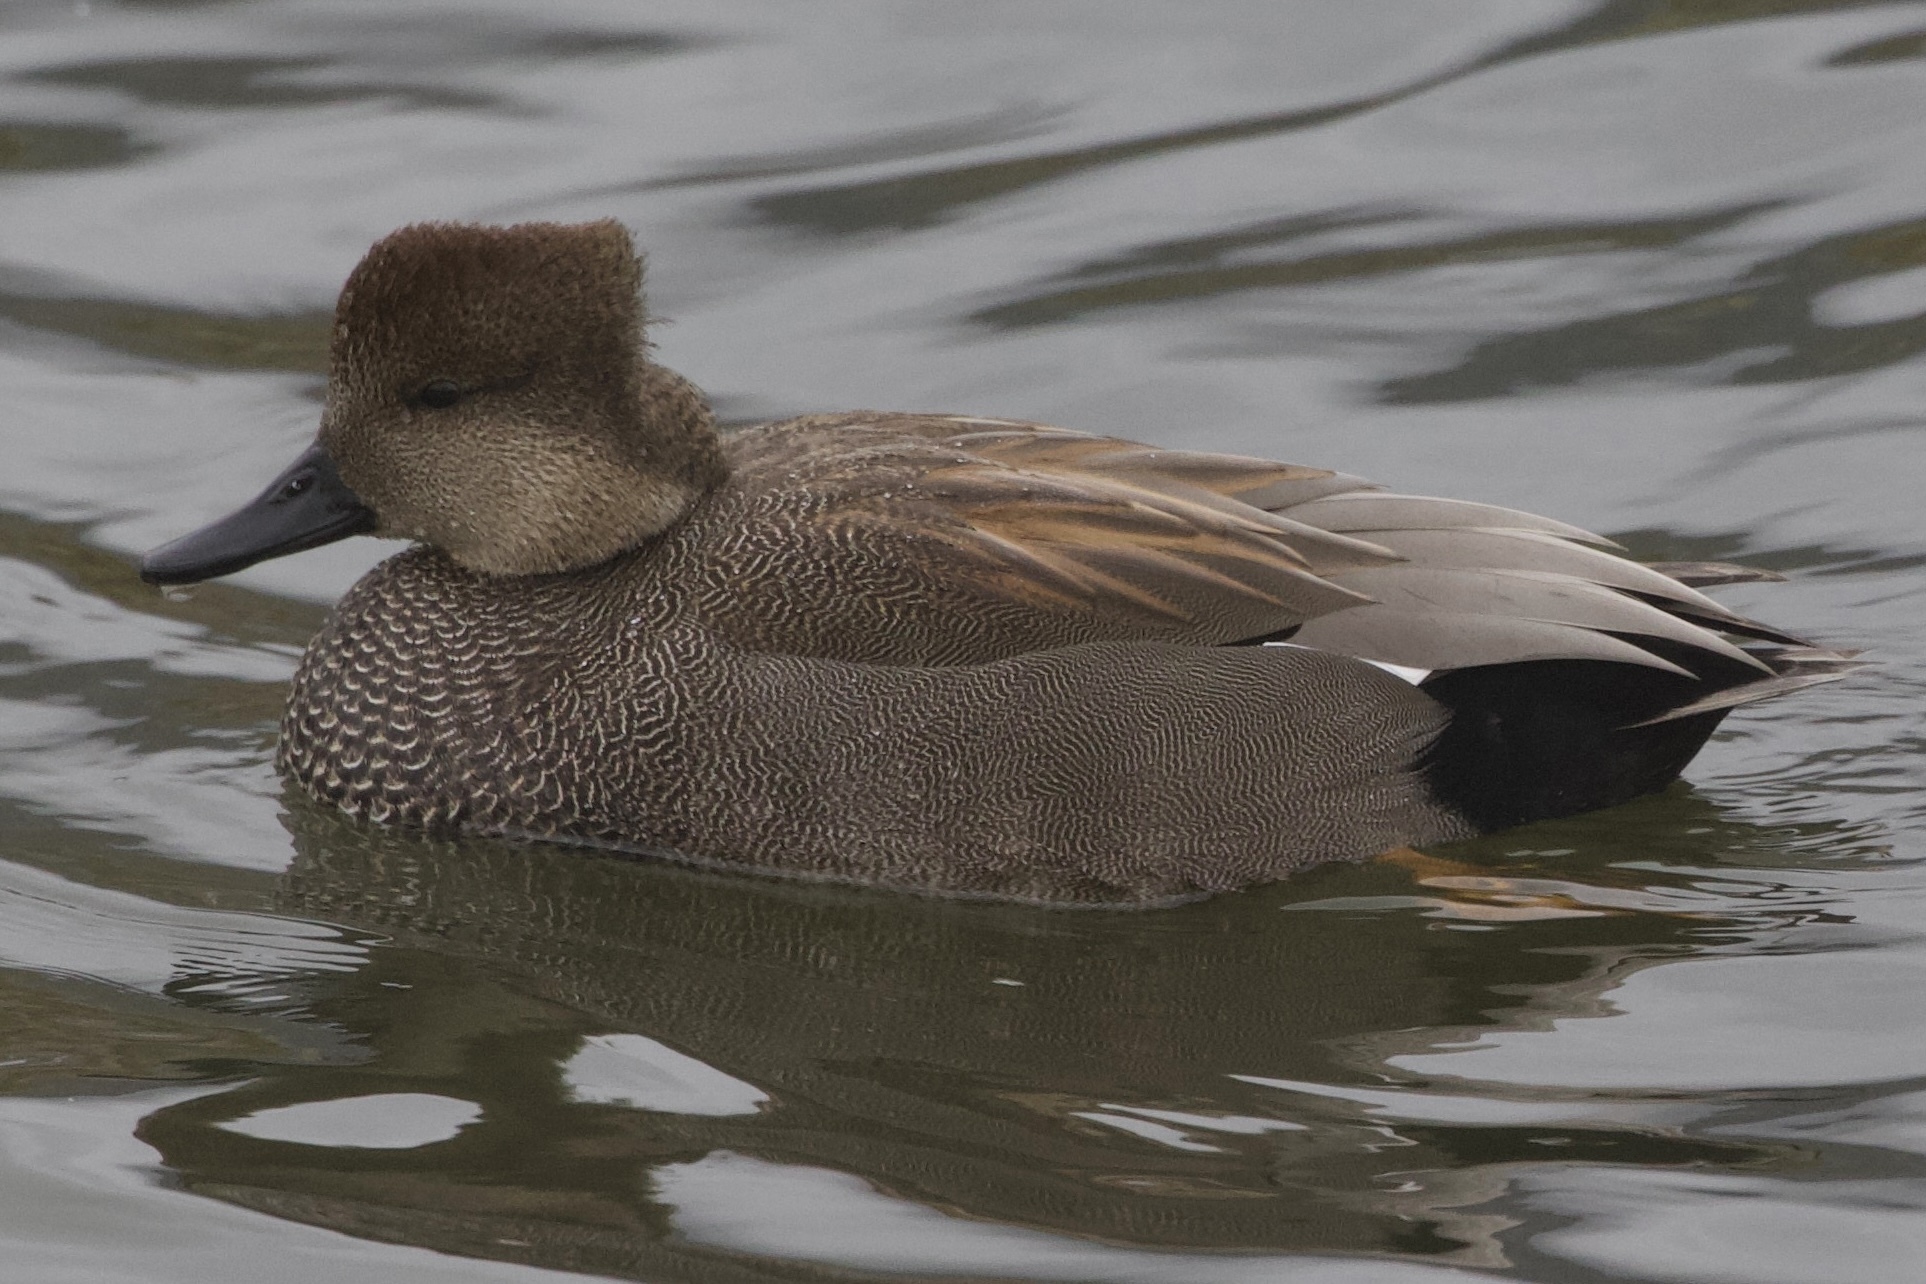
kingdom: Animalia
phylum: Chordata
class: Aves
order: Anseriformes
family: Anatidae
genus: Mareca
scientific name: Mareca strepera
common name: Gadwall
